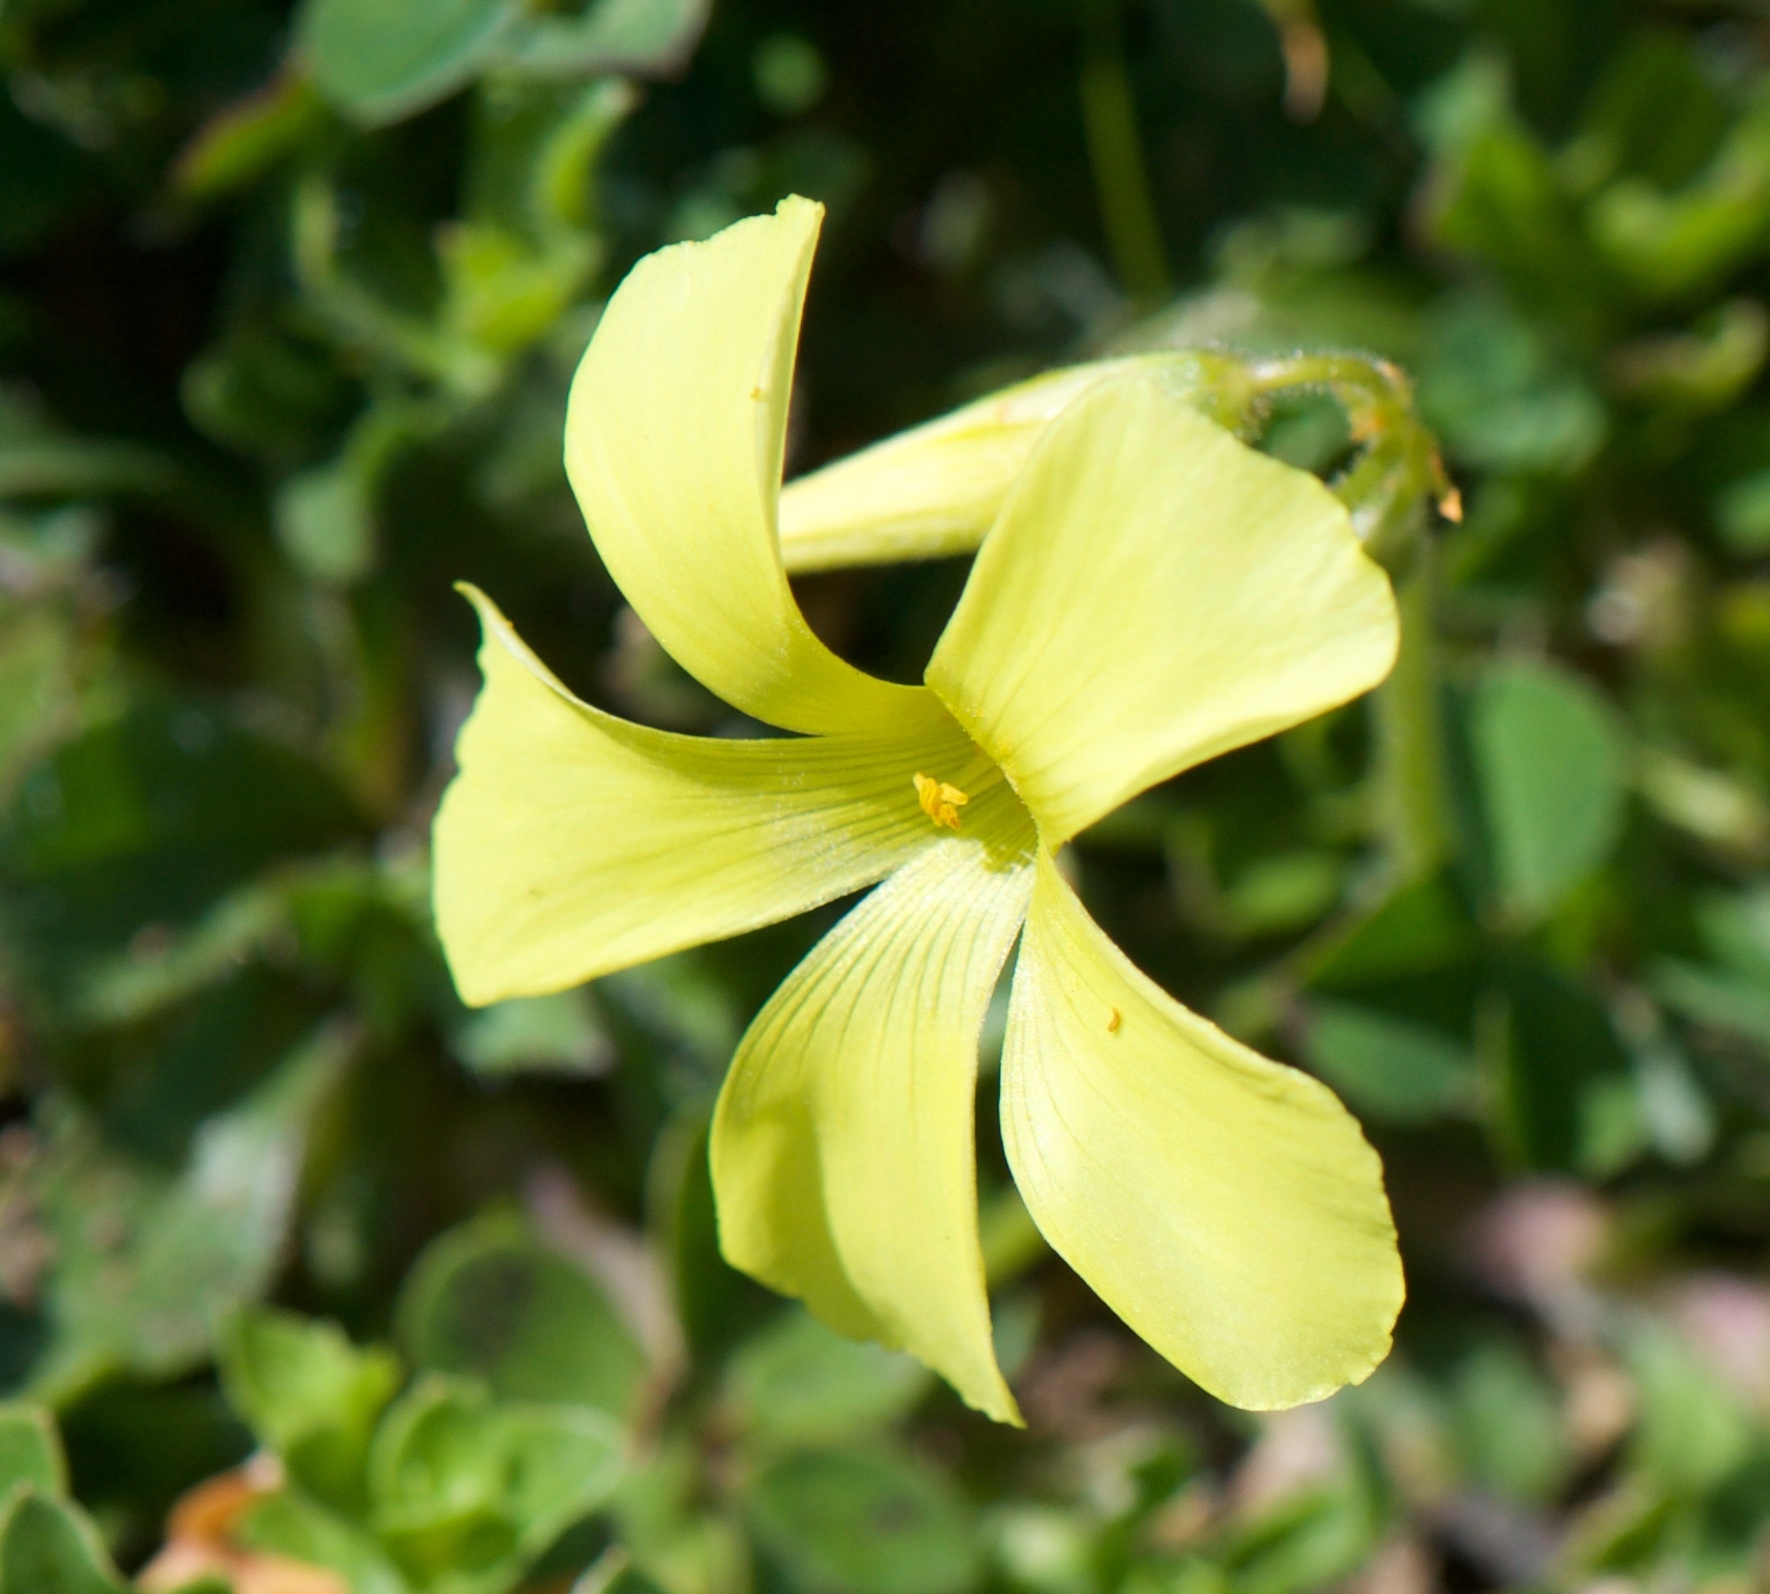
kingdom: Plantae
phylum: Tracheophyta
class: Magnoliopsida
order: Oxalidales
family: Oxalidaceae
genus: Oxalis
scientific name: Oxalis pes-caprae
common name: Bermuda-buttercup
